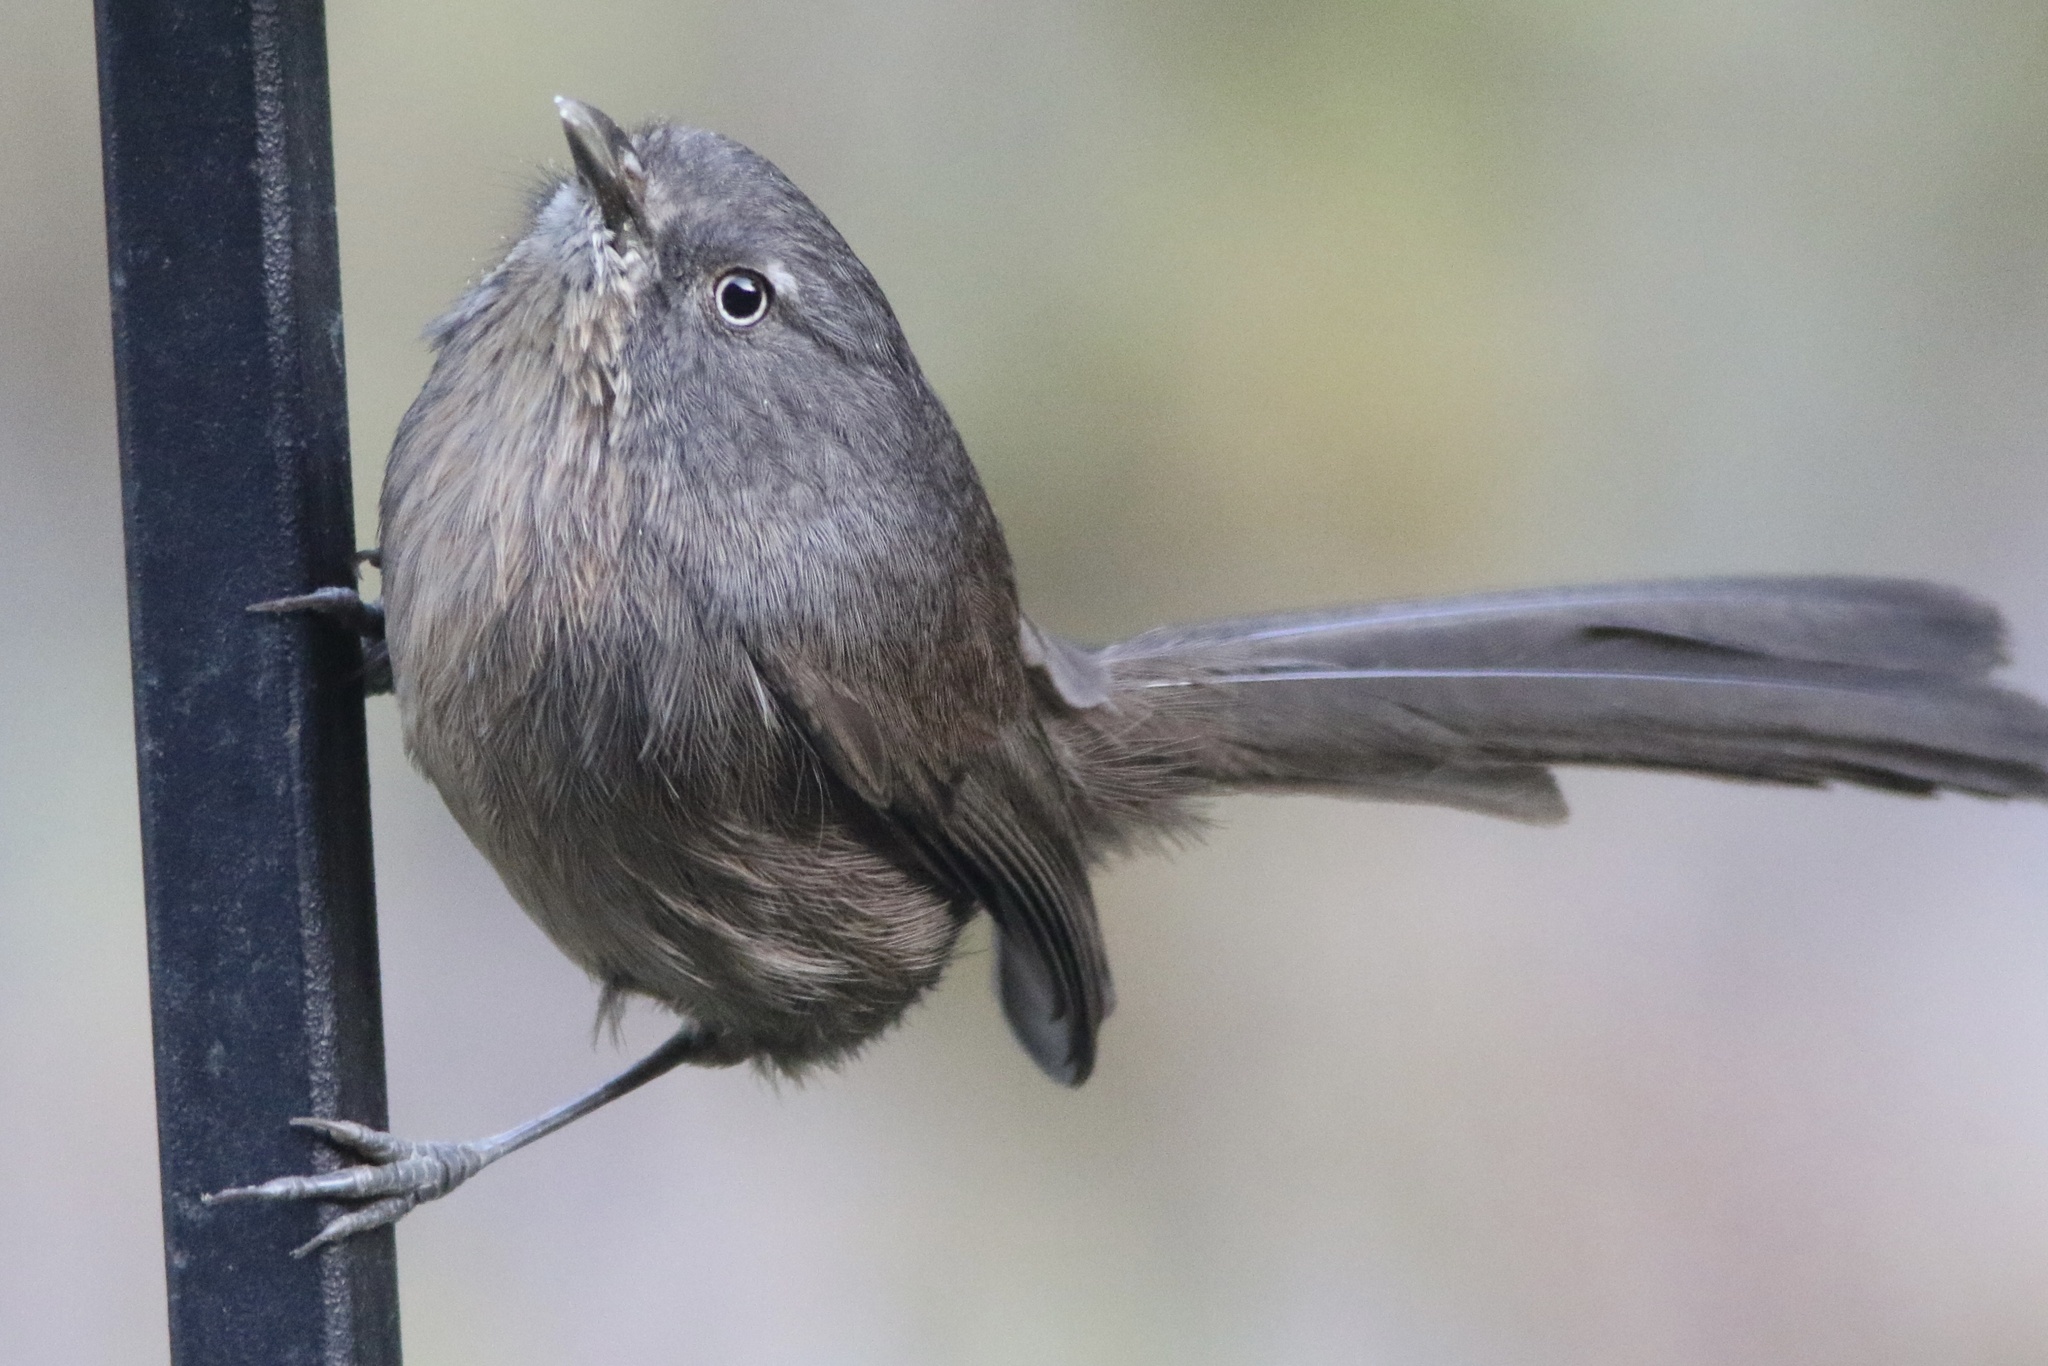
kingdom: Animalia
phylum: Chordata
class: Aves
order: Passeriformes
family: Sylviidae
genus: Chamaea
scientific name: Chamaea fasciata
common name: Wrentit
